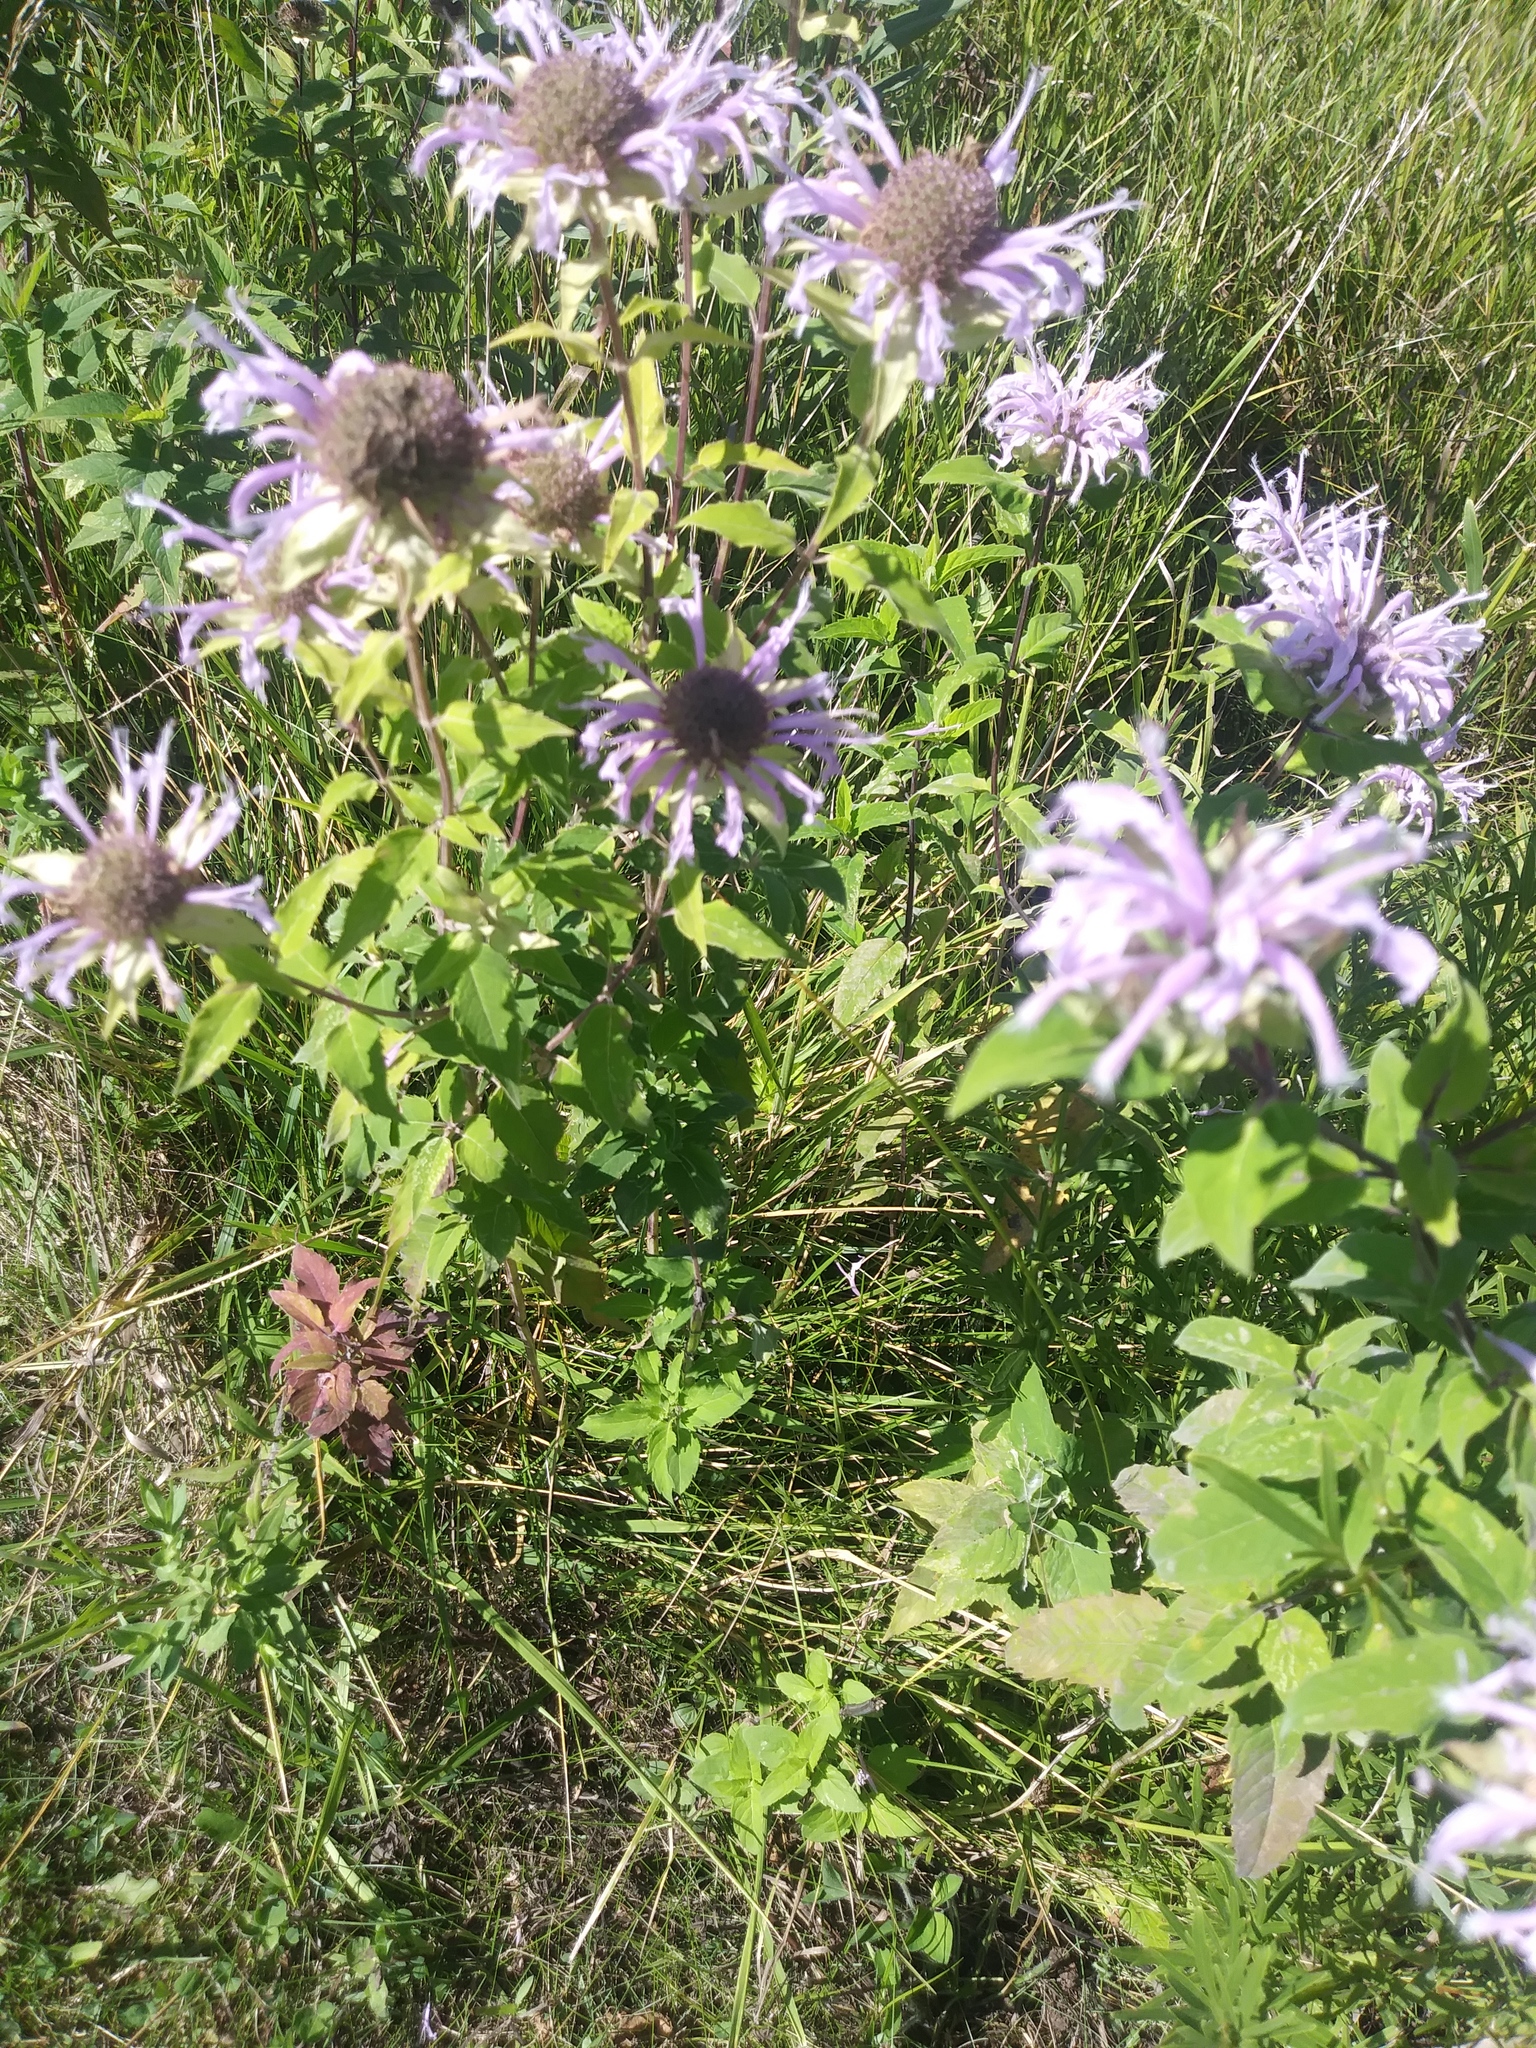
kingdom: Plantae
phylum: Tracheophyta
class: Magnoliopsida
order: Lamiales
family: Lamiaceae
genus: Monarda
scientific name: Monarda fistulosa
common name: Purple beebalm
